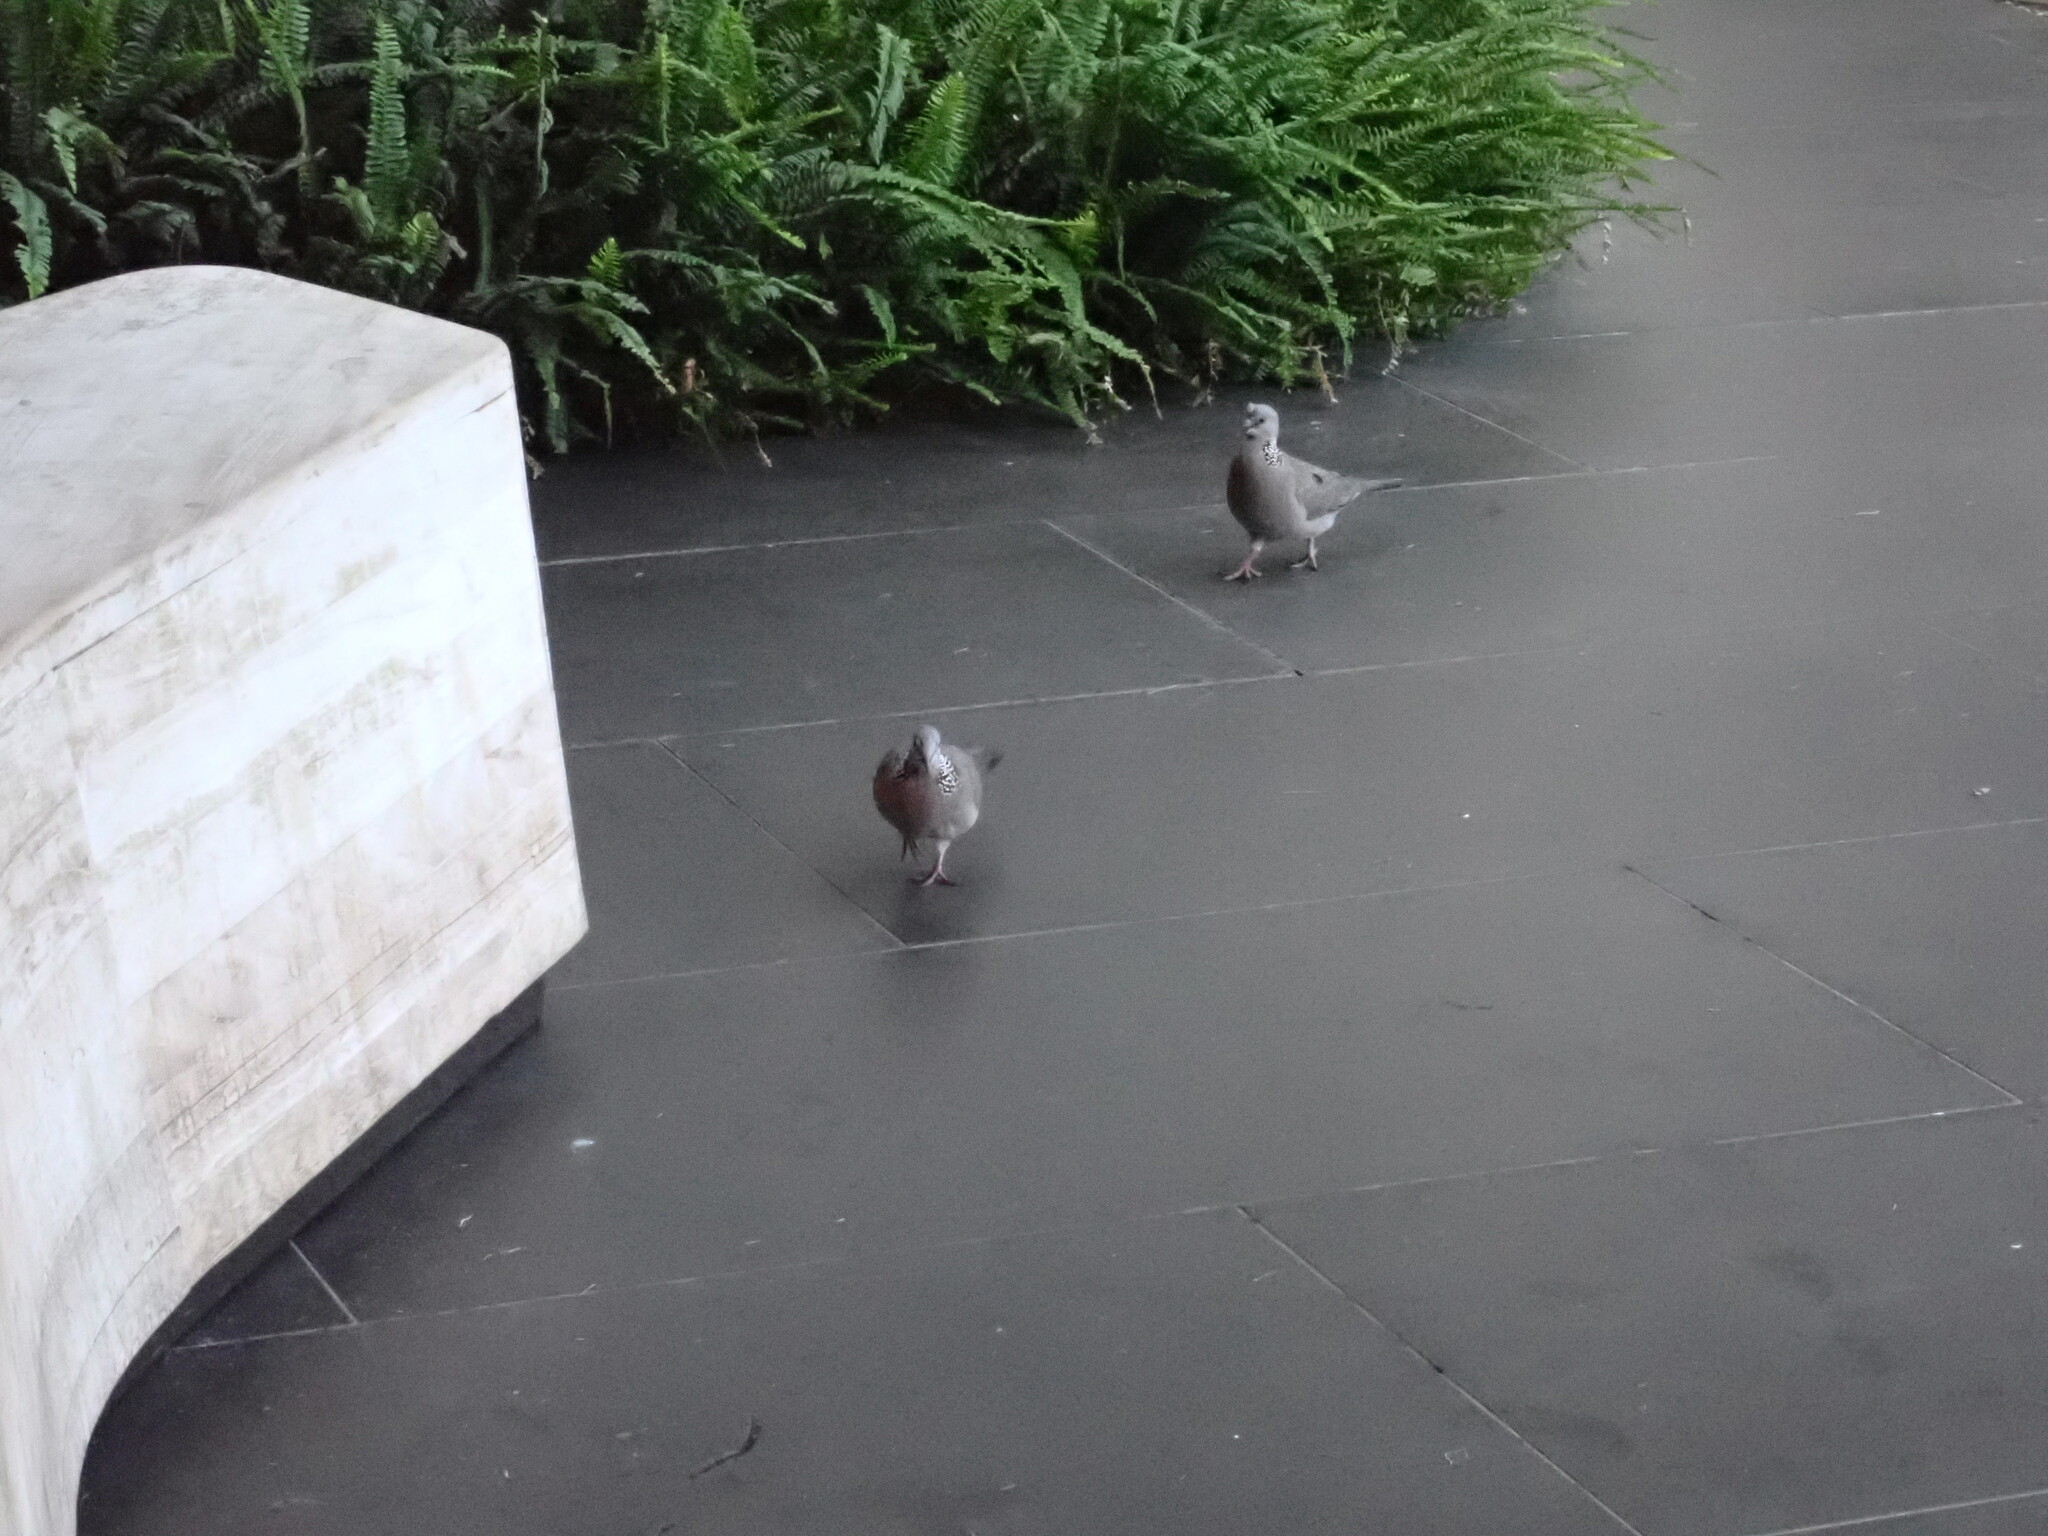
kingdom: Animalia
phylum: Chordata
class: Aves
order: Columbiformes
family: Columbidae
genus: Spilopelia
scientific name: Spilopelia chinensis
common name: Spotted dove
